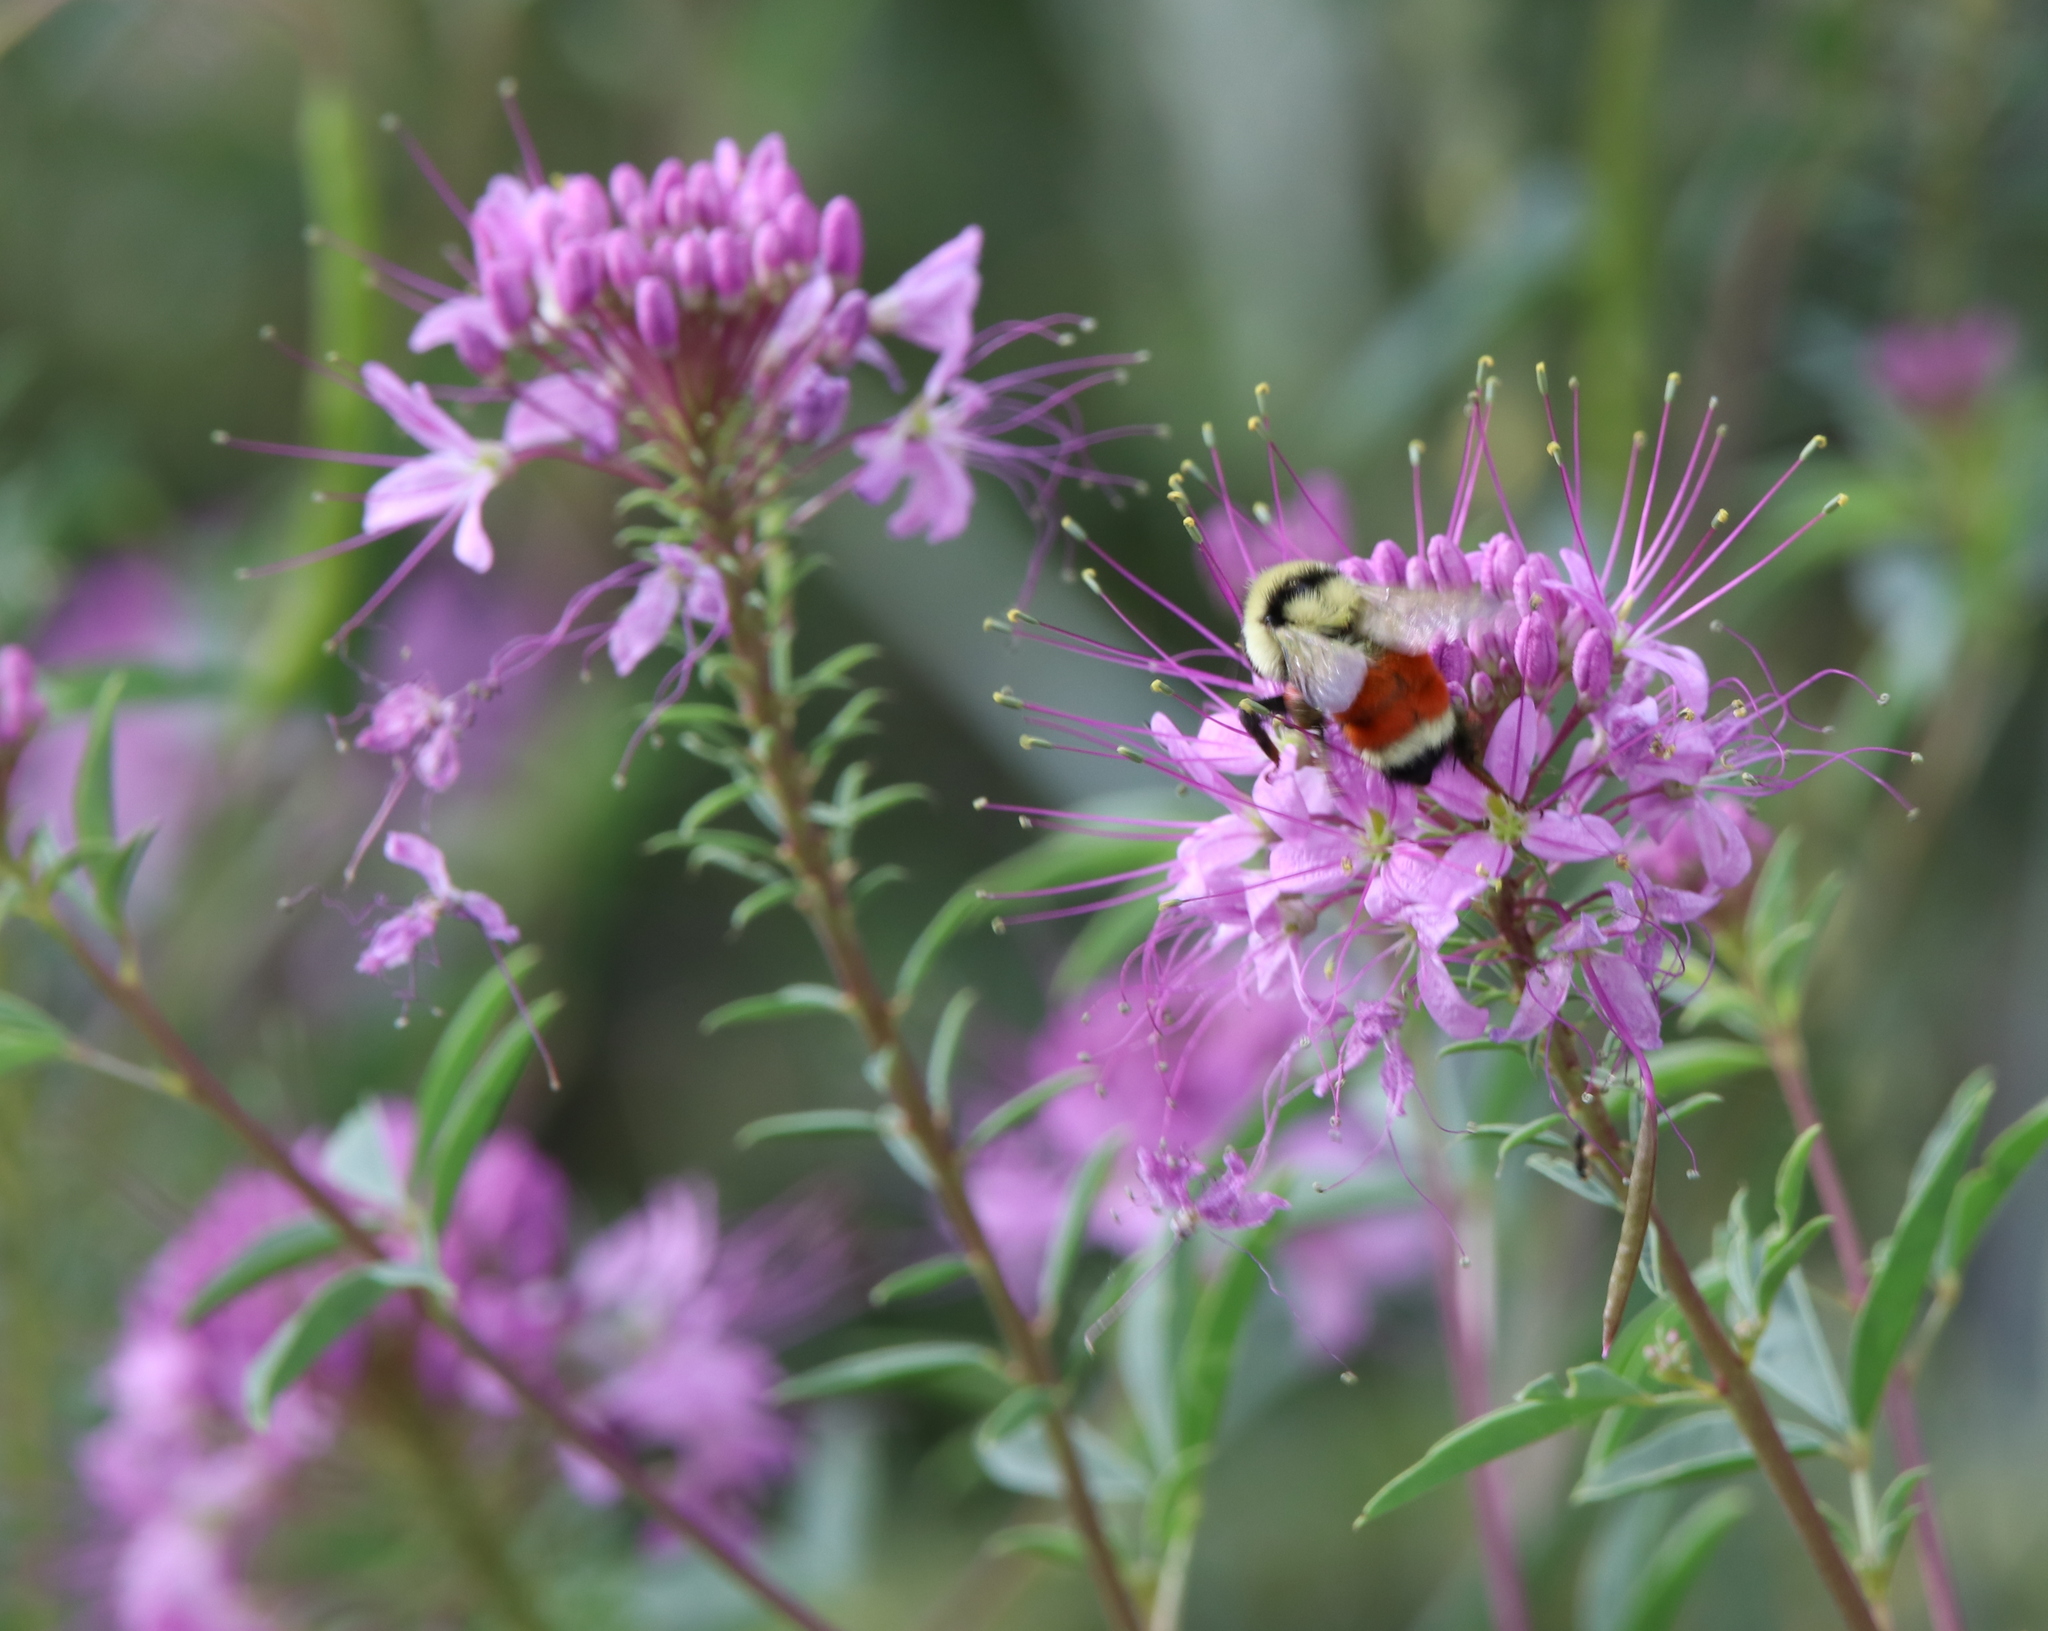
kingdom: Animalia
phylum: Arthropoda
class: Insecta
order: Hymenoptera
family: Apidae
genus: Bombus
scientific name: Bombus huntii
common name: Hunt bumble bee
